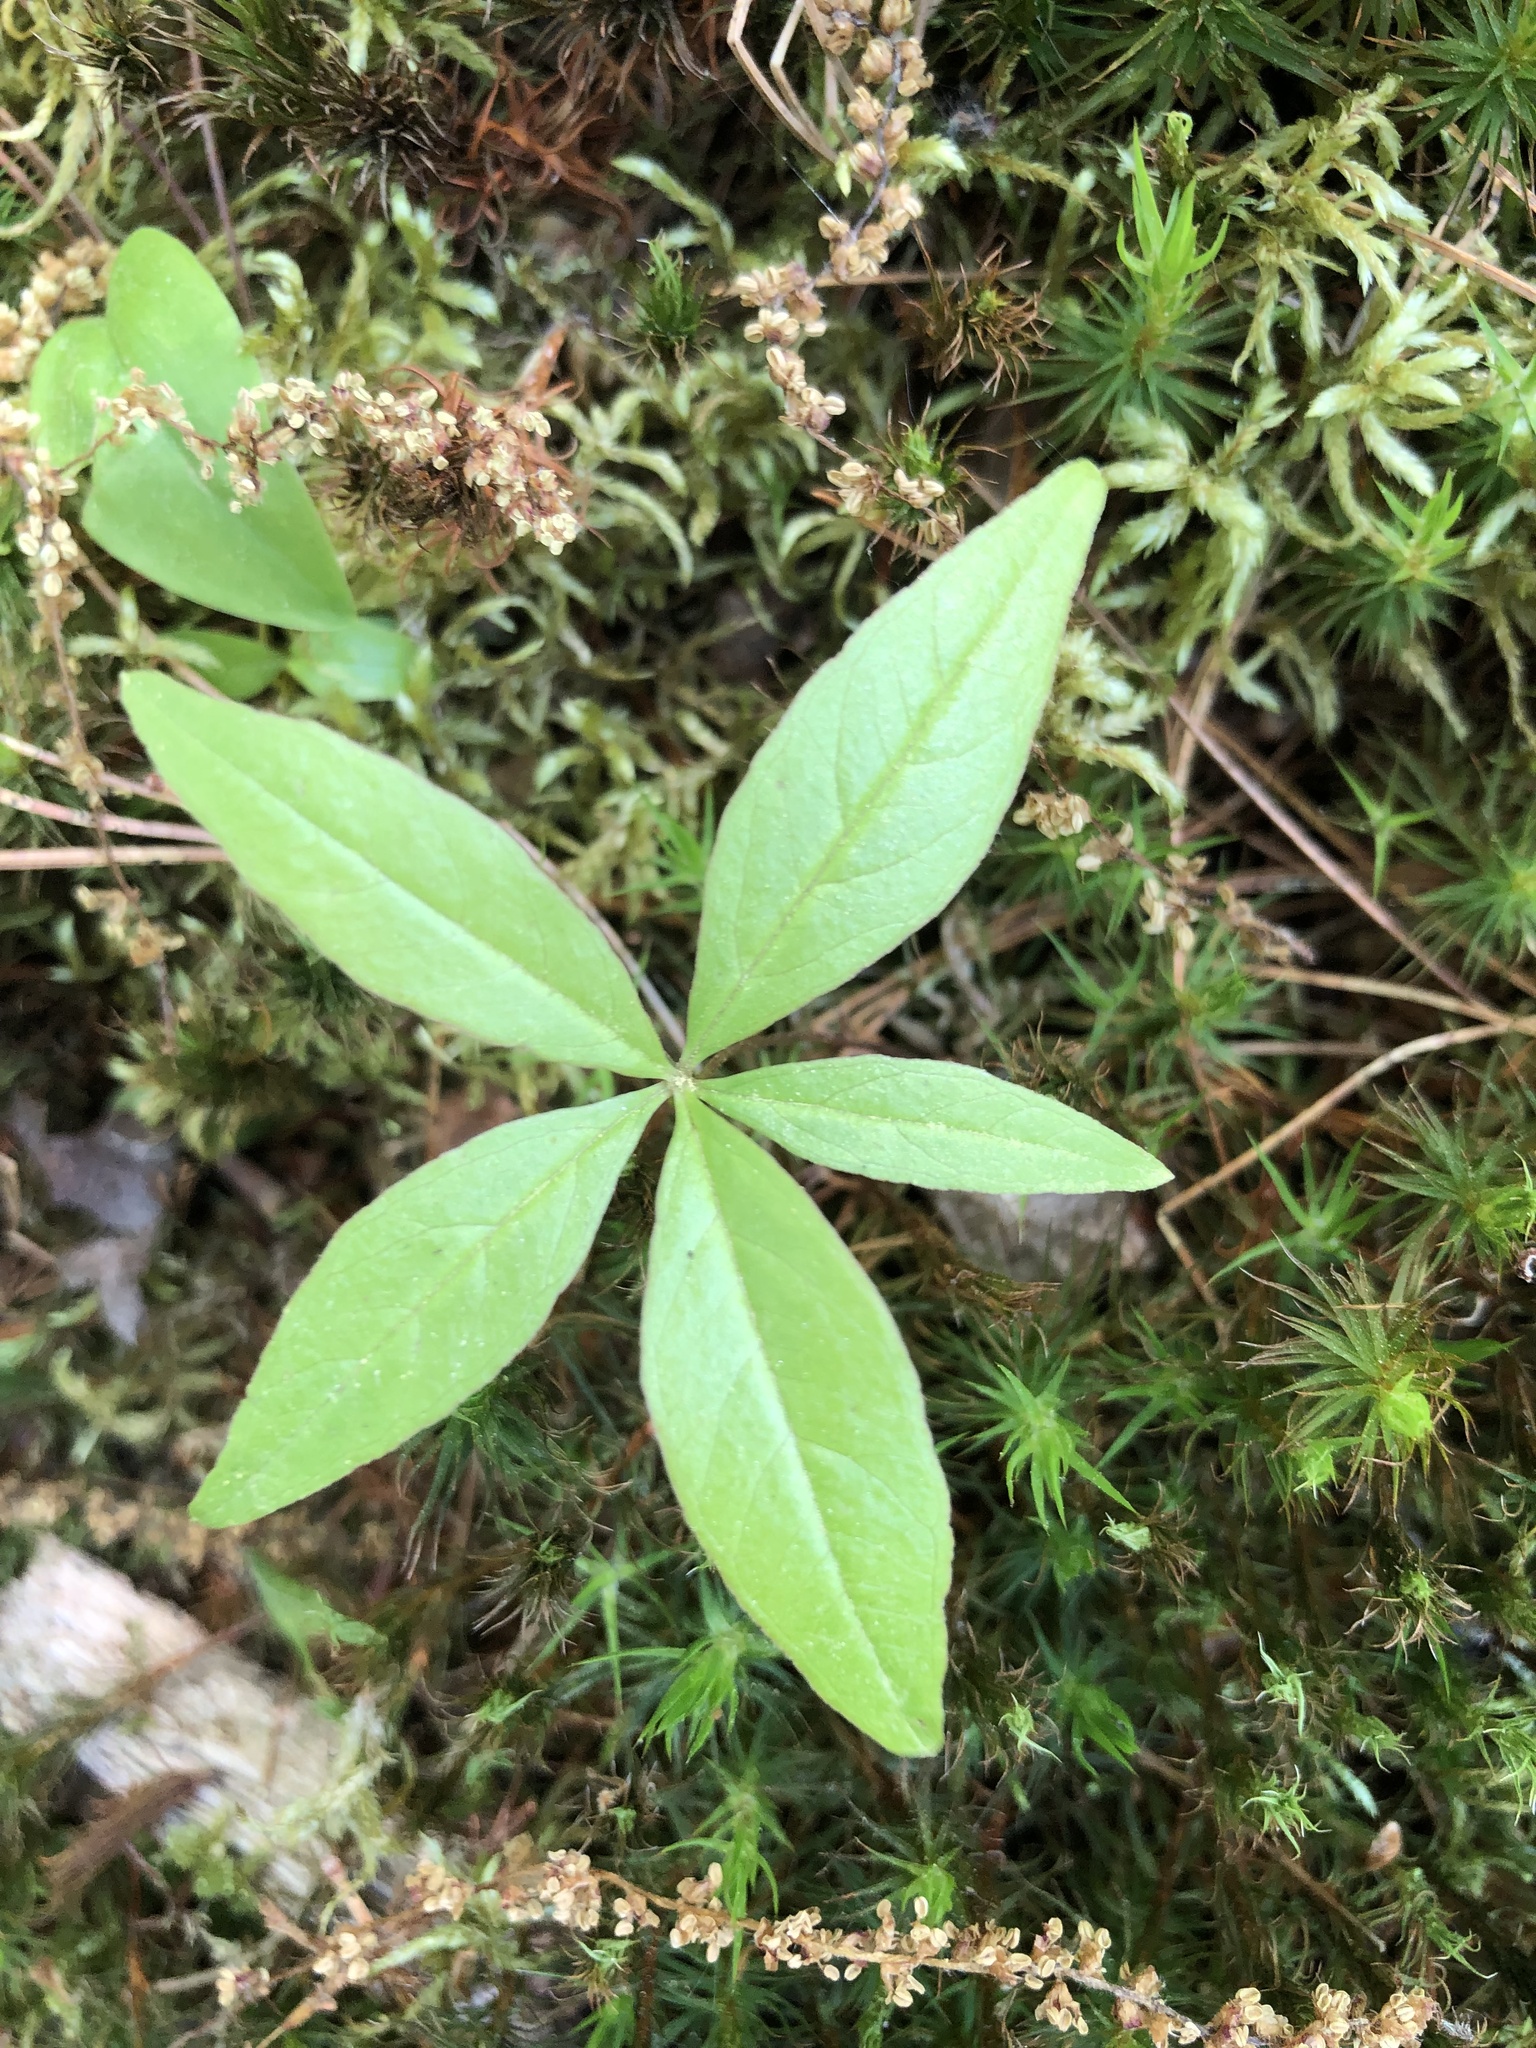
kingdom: Plantae
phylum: Tracheophyta
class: Magnoliopsida
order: Ericales
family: Primulaceae
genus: Lysimachia
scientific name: Lysimachia borealis
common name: American starflower
